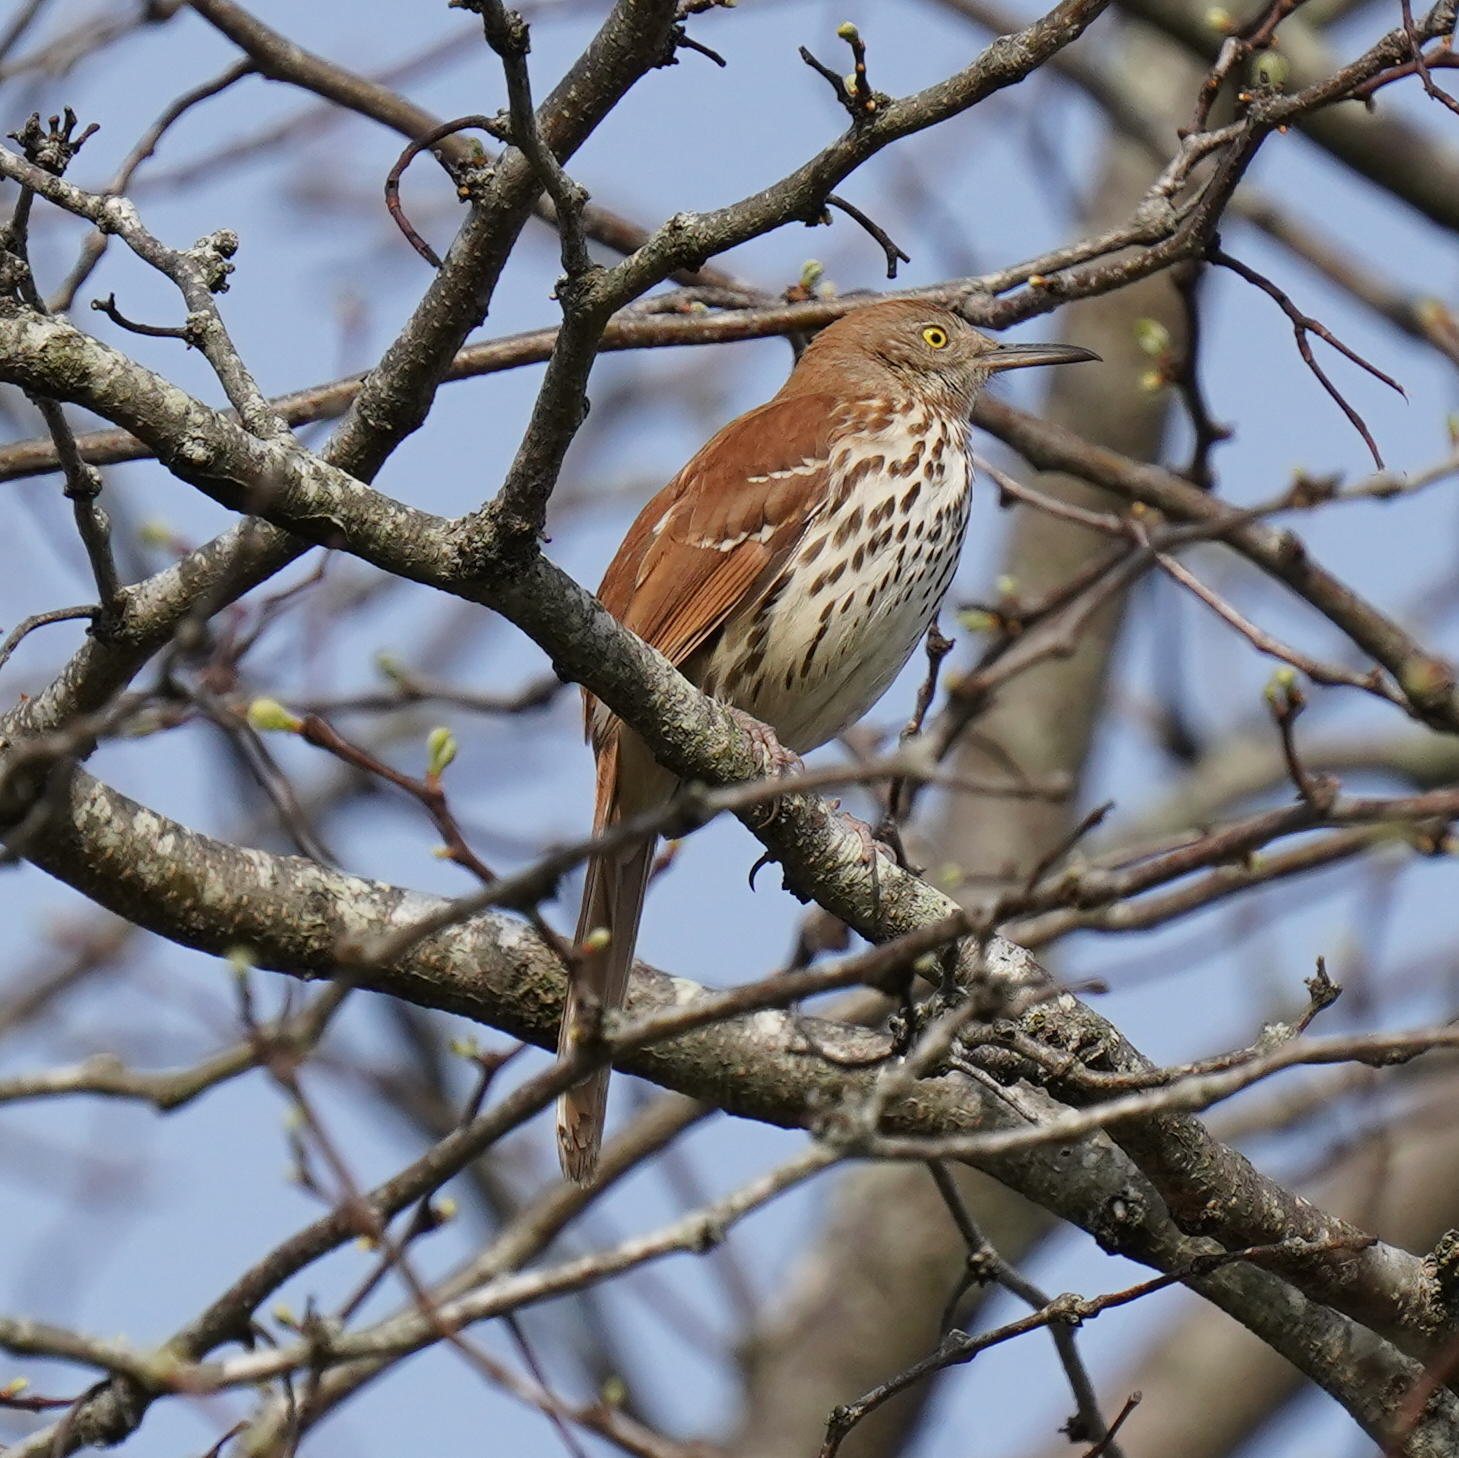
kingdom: Animalia
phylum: Chordata
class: Aves
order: Passeriformes
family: Mimidae
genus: Toxostoma
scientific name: Toxostoma rufum
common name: Brown thrasher
